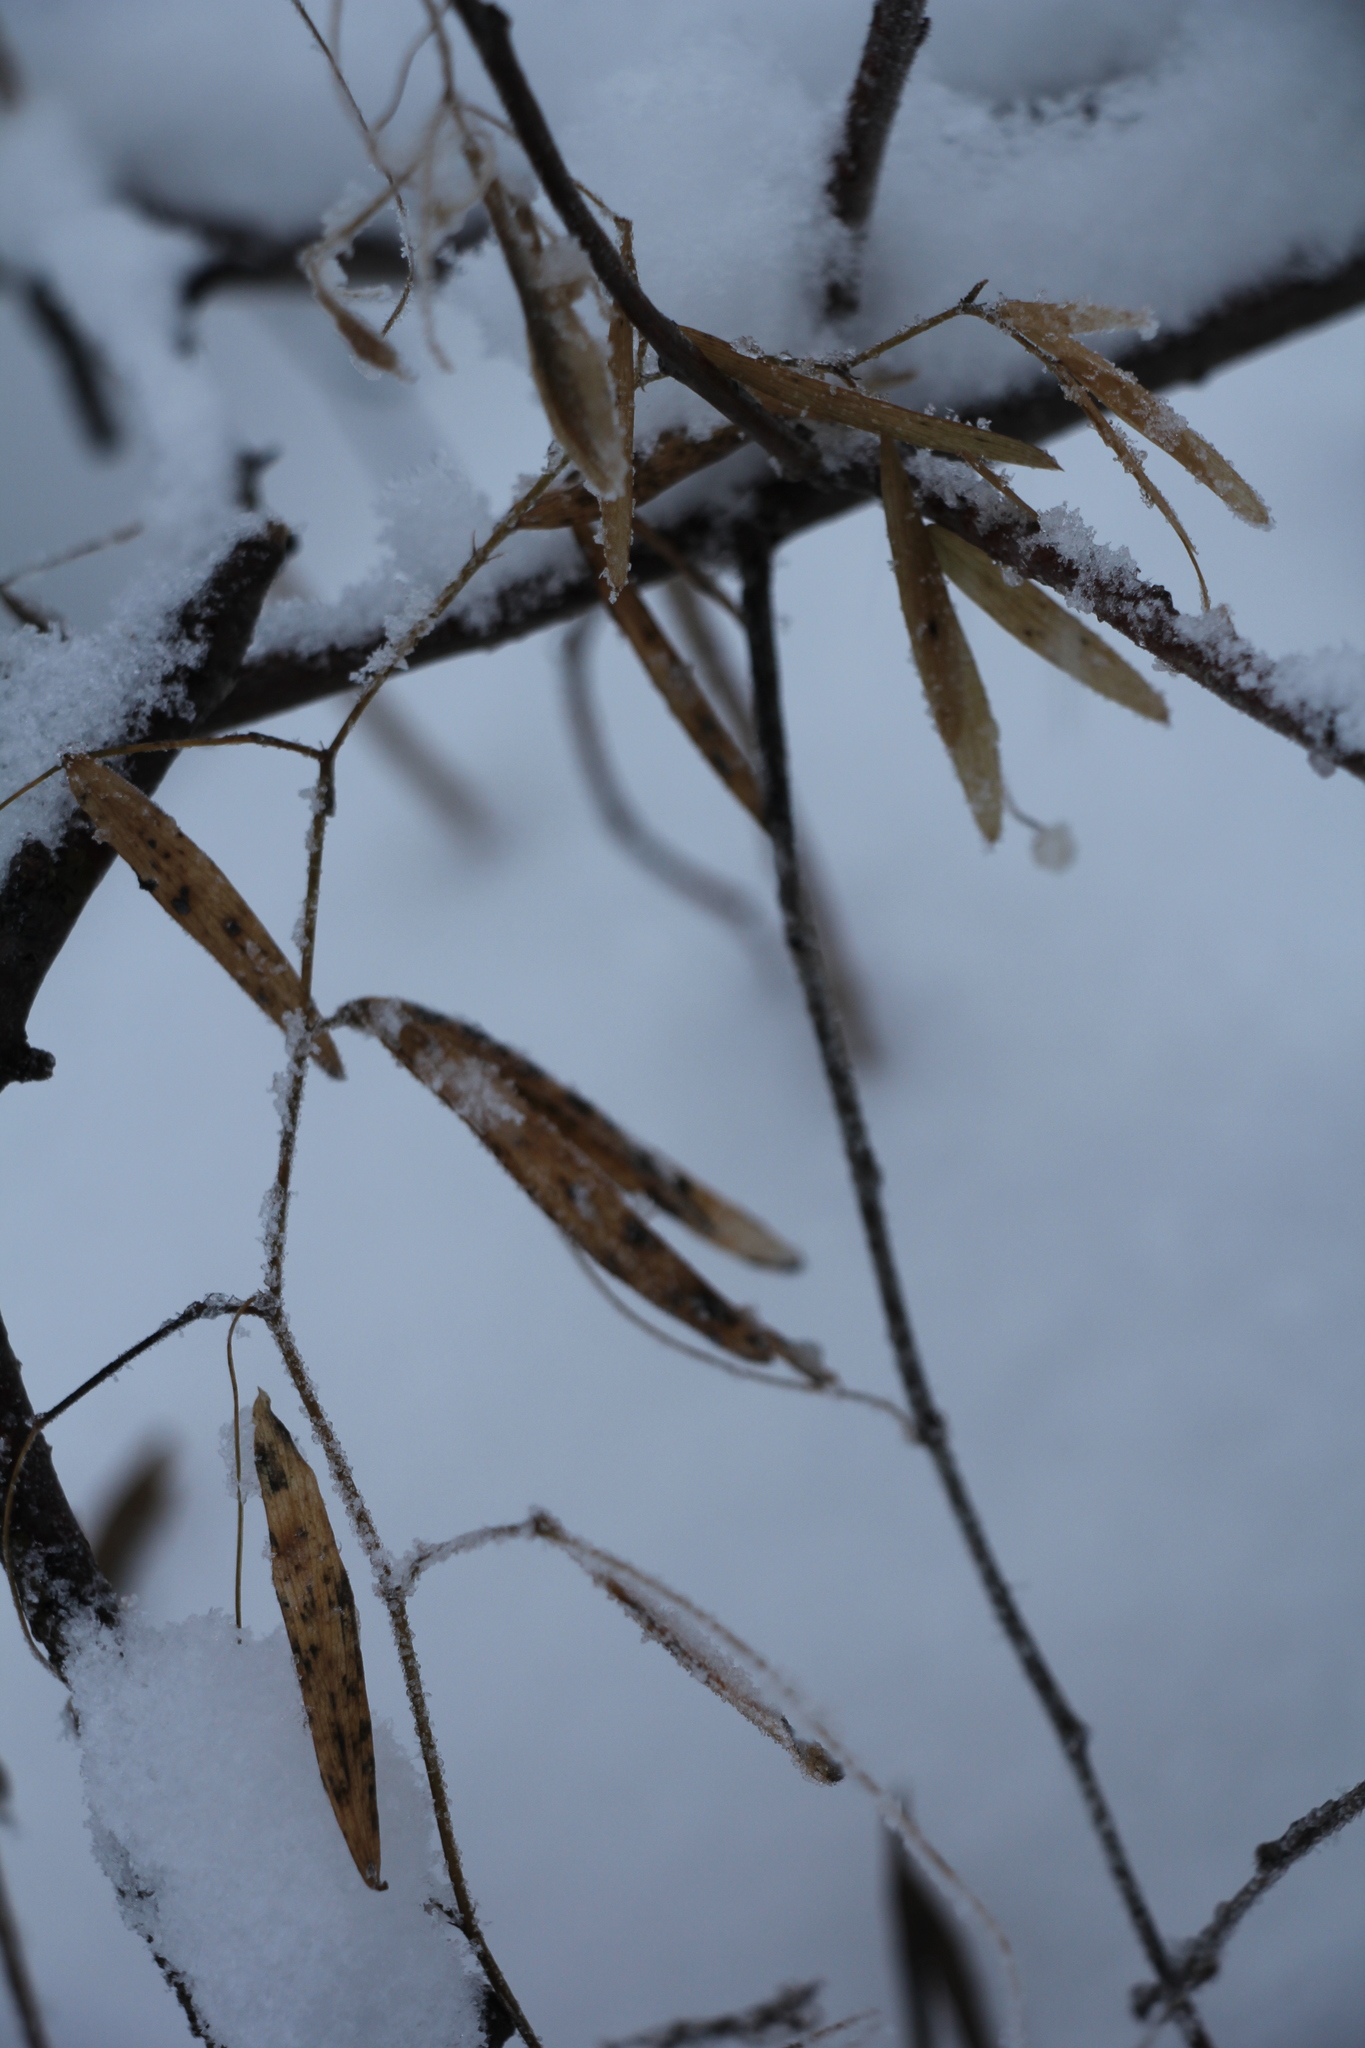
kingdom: Plantae
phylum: Tracheophyta
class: Magnoliopsida
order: Fabales
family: Fabaceae
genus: Lathyrus
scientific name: Lathyrus pratensis
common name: Meadow vetchling
